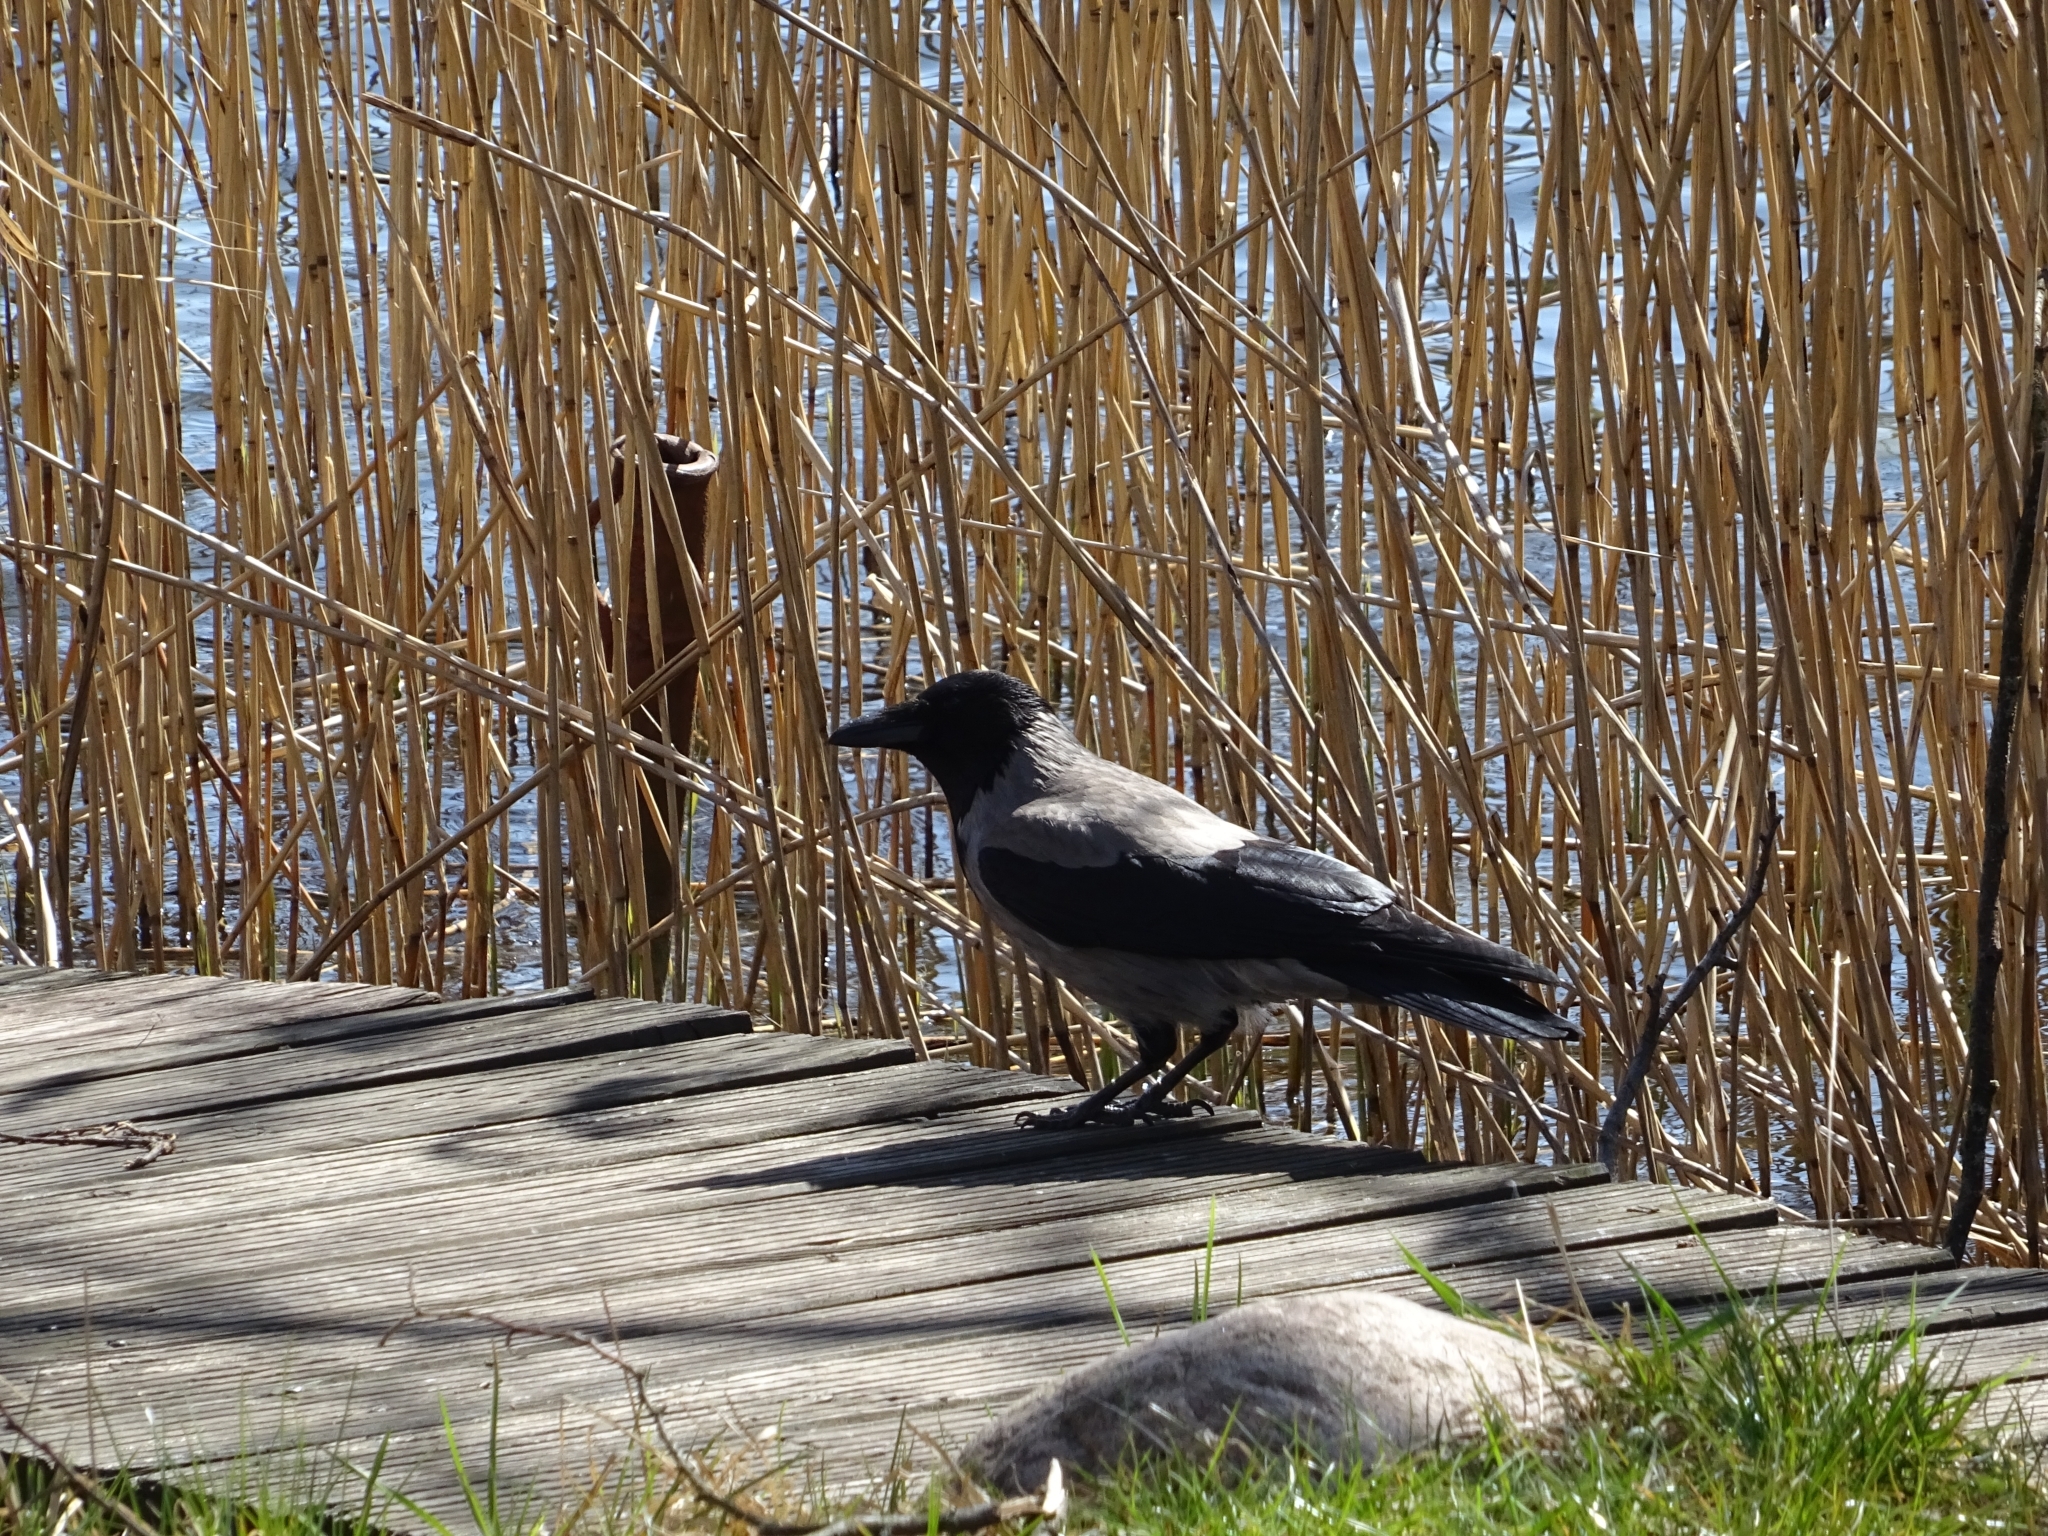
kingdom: Animalia
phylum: Chordata
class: Aves
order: Passeriformes
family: Corvidae
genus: Corvus
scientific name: Corvus cornix
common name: Hooded crow
